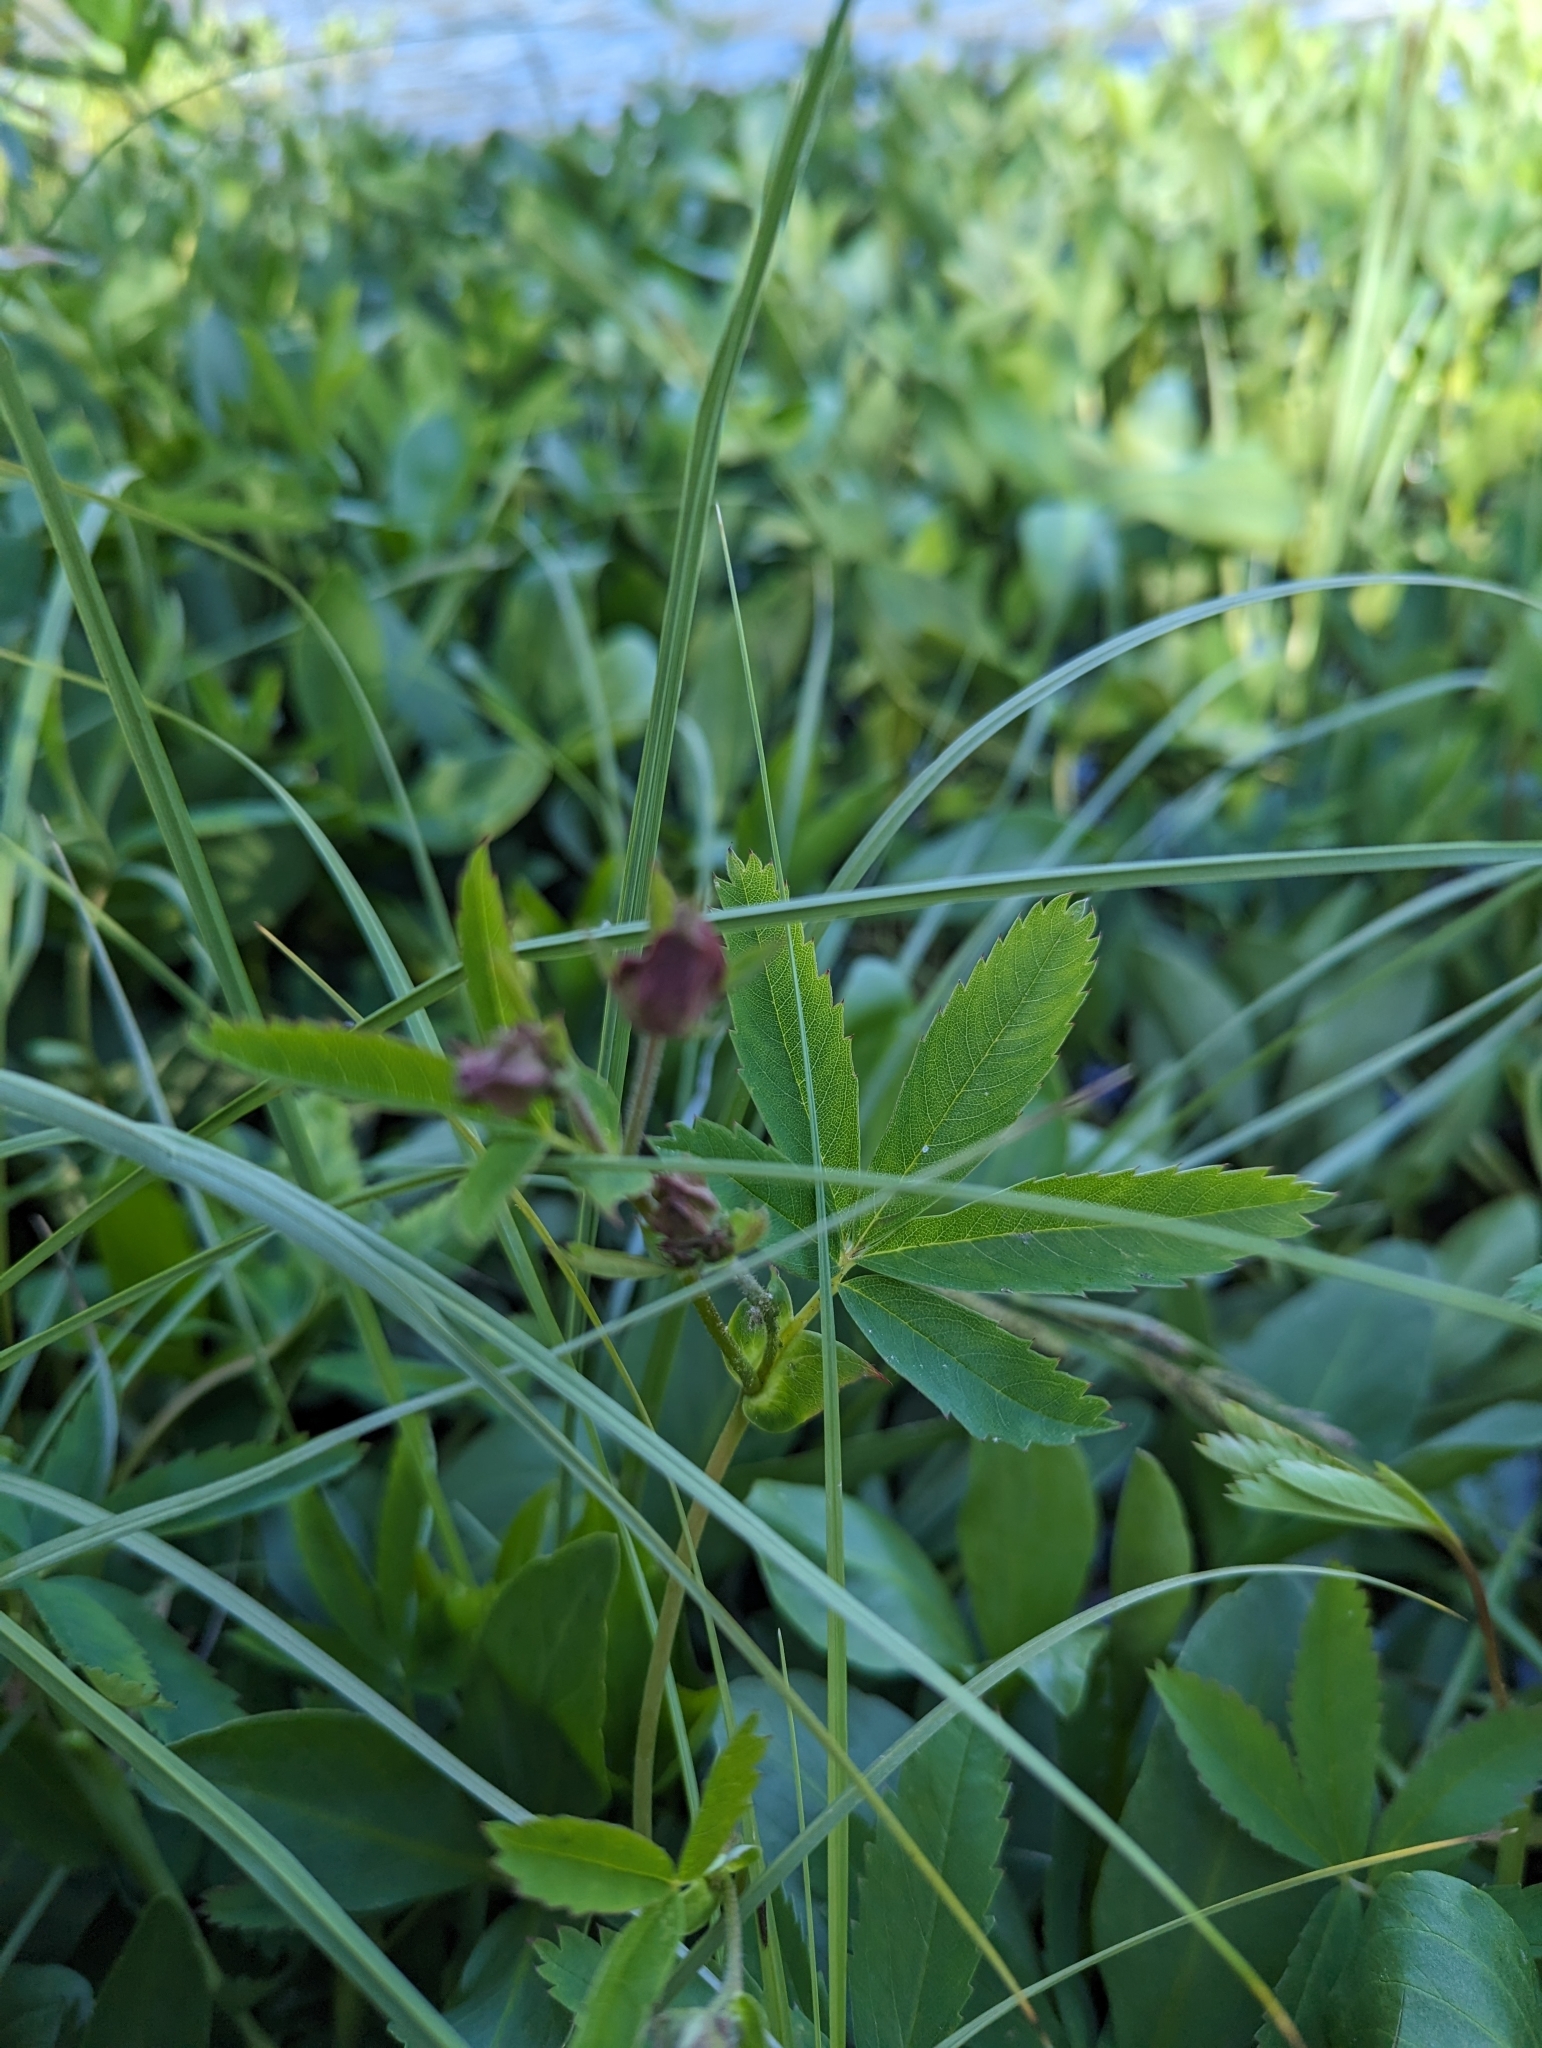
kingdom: Plantae
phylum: Tracheophyta
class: Magnoliopsida
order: Rosales
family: Rosaceae
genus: Comarum
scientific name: Comarum palustre
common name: Marsh cinquefoil
